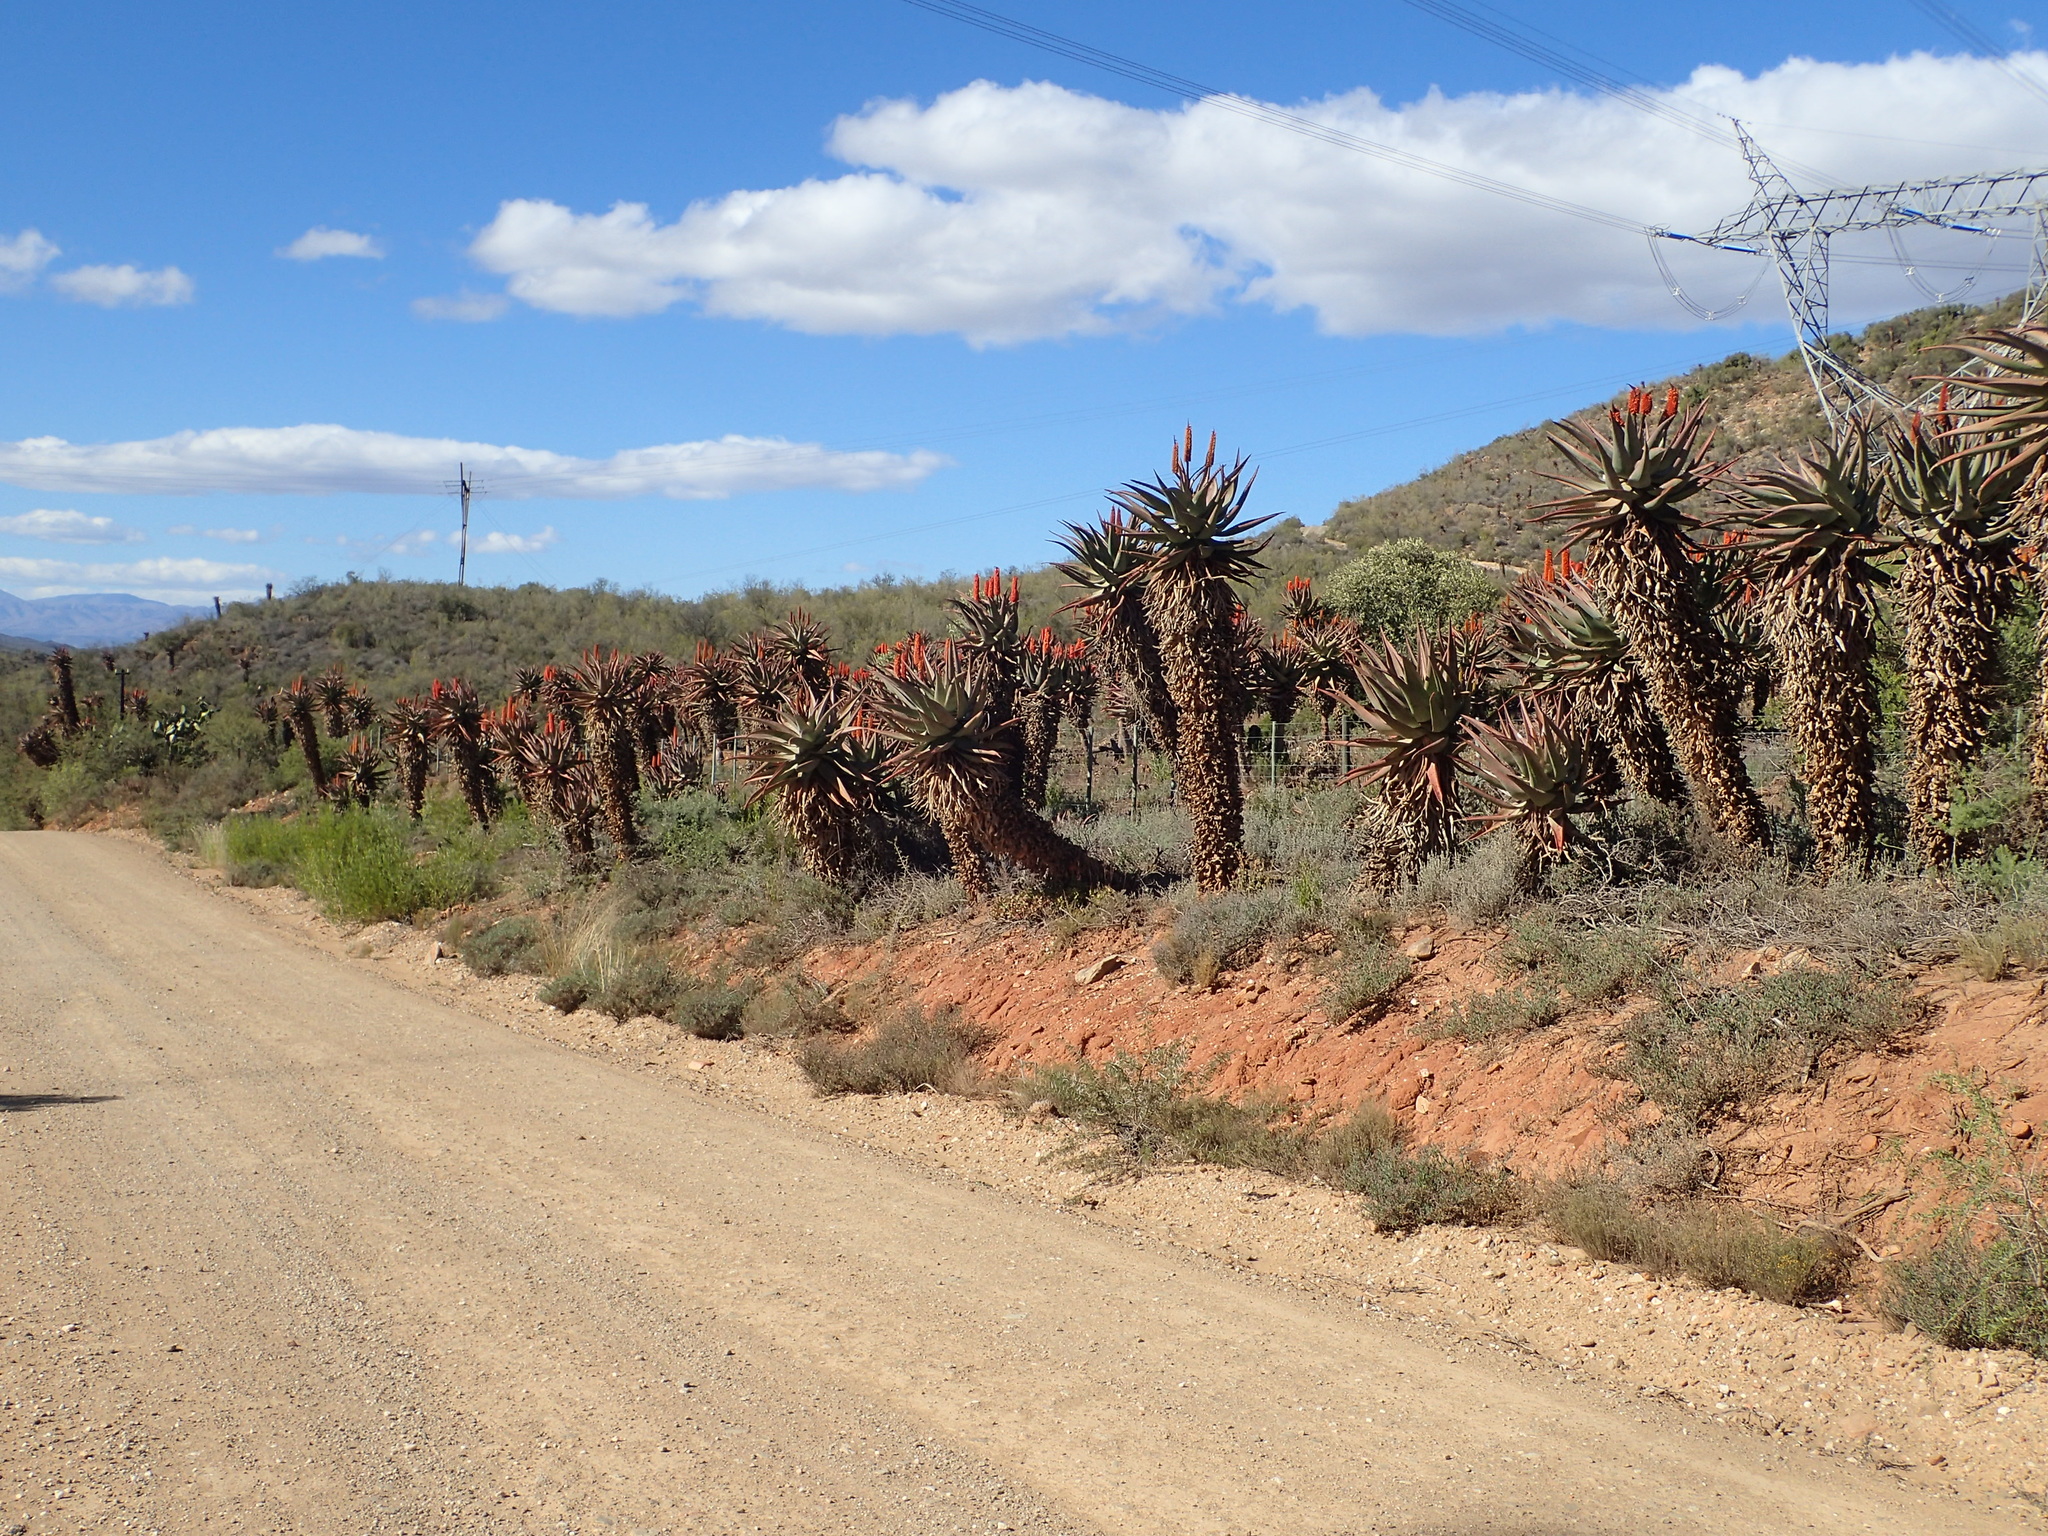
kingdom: Plantae
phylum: Tracheophyta
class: Liliopsida
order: Asparagales
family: Asphodelaceae
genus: Aloe
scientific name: Aloe ferox
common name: Bitter aloe
